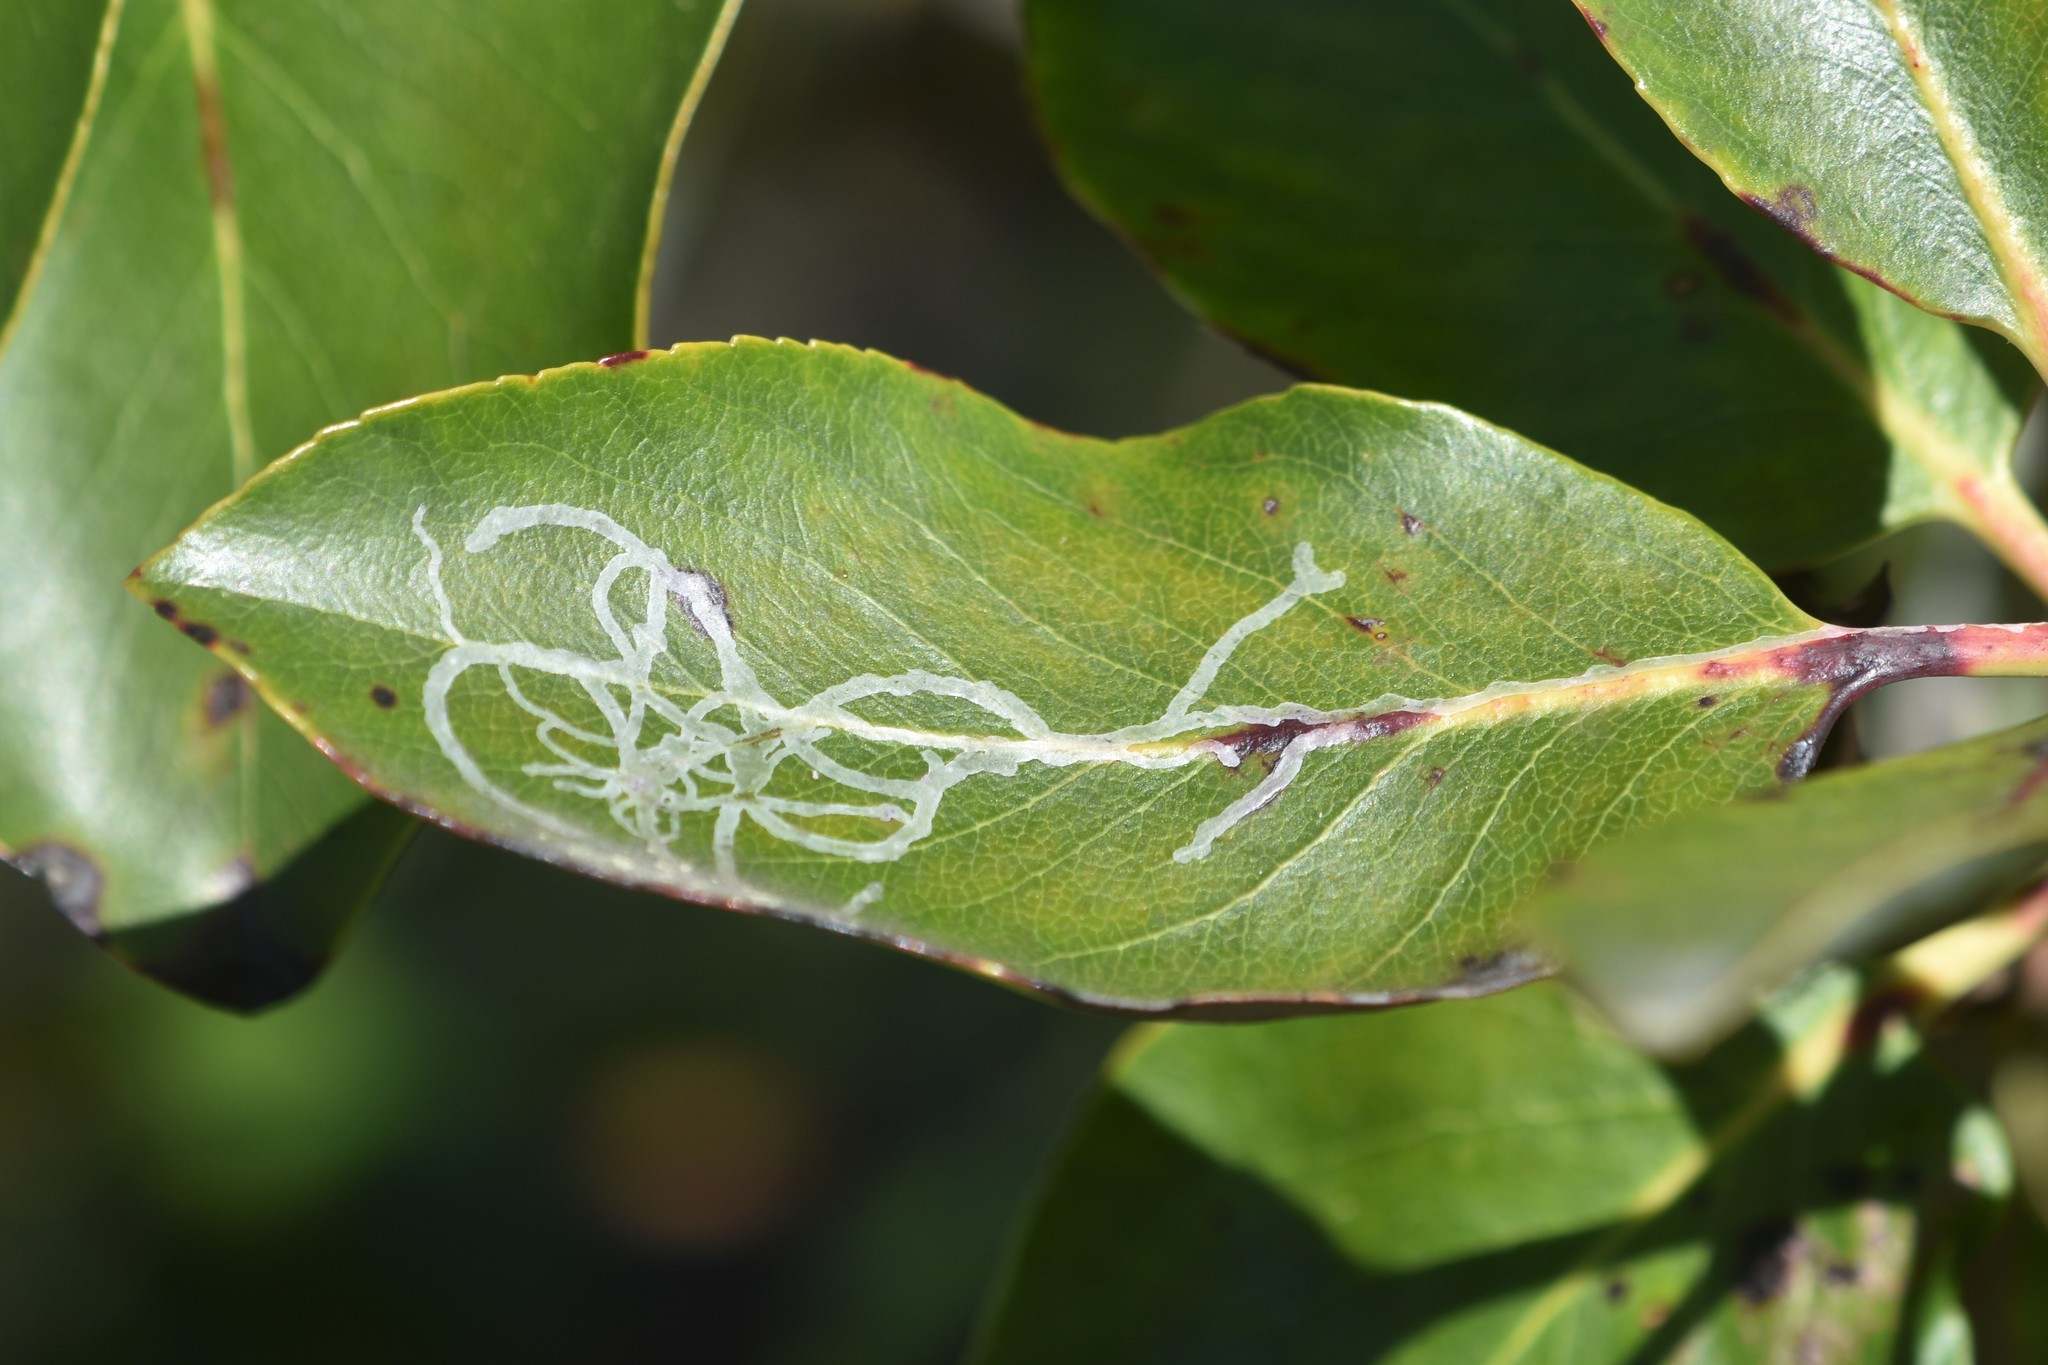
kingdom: Animalia
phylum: Arthropoda
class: Insecta
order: Lepidoptera
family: Gracillariidae
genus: Marmara
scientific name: Marmara arbutiella
